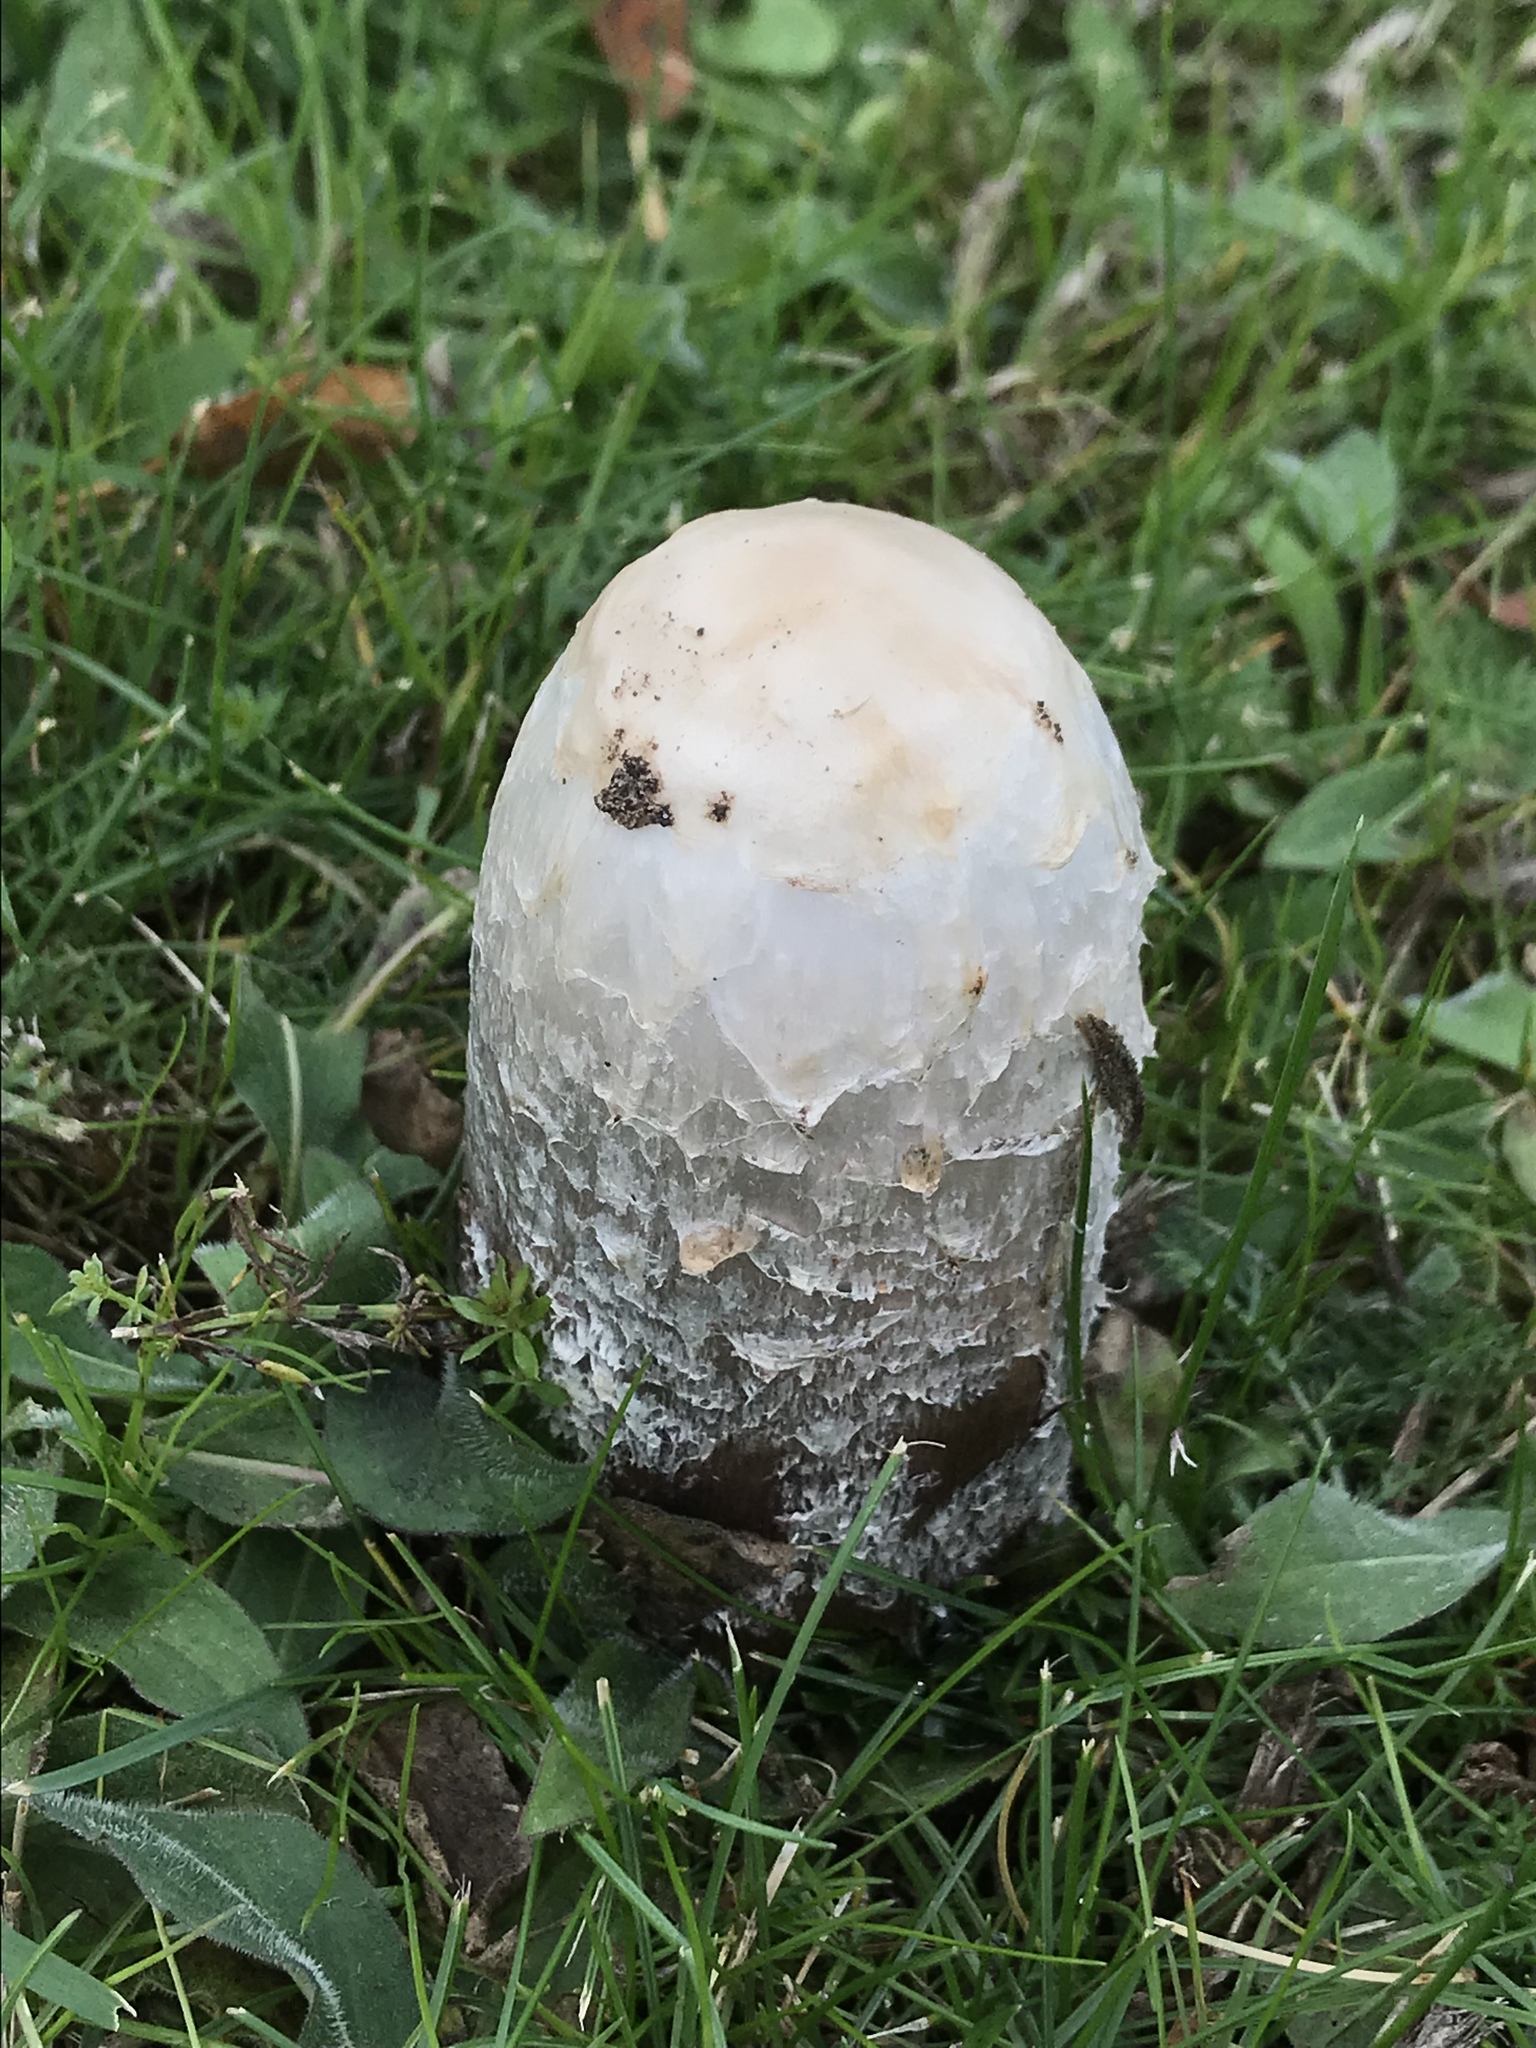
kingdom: Fungi
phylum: Basidiomycota
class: Agaricomycetes
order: Agaricales
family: Agaricaceae
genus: Coprinus
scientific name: Coprinus comatus
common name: Lawyer's wig
